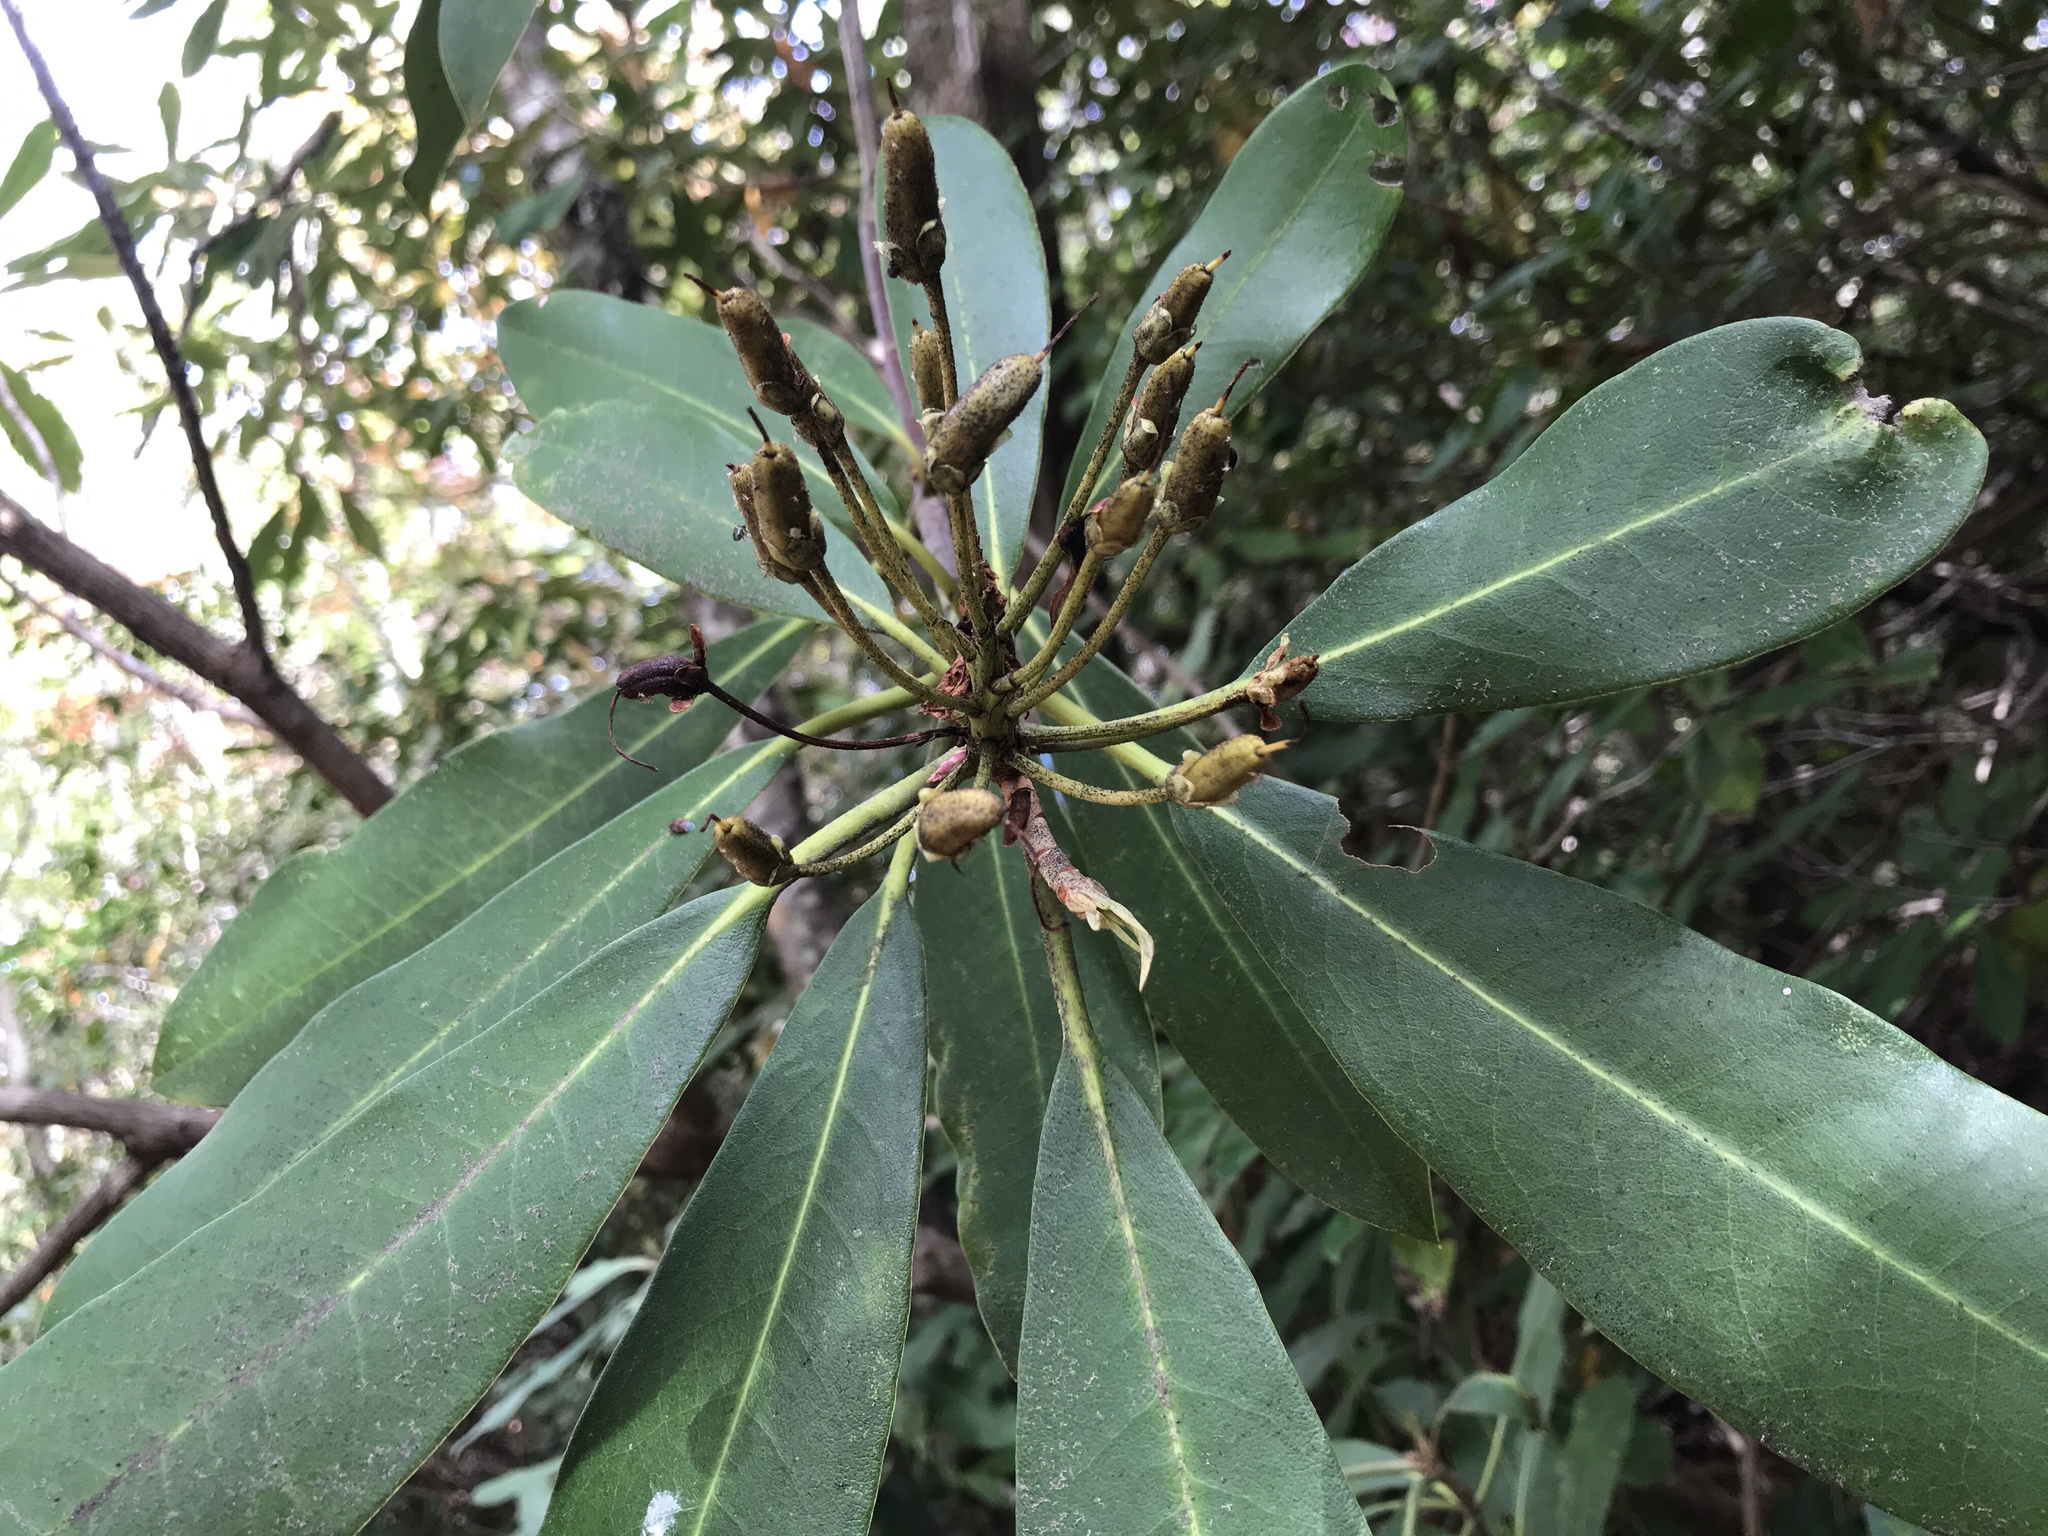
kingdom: Plantae
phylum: Tracheophyta
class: Magnoliopsida
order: Ericales
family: Ericaceae
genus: Rhododendron
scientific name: Rhododendron maximum
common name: Great rhododendron
